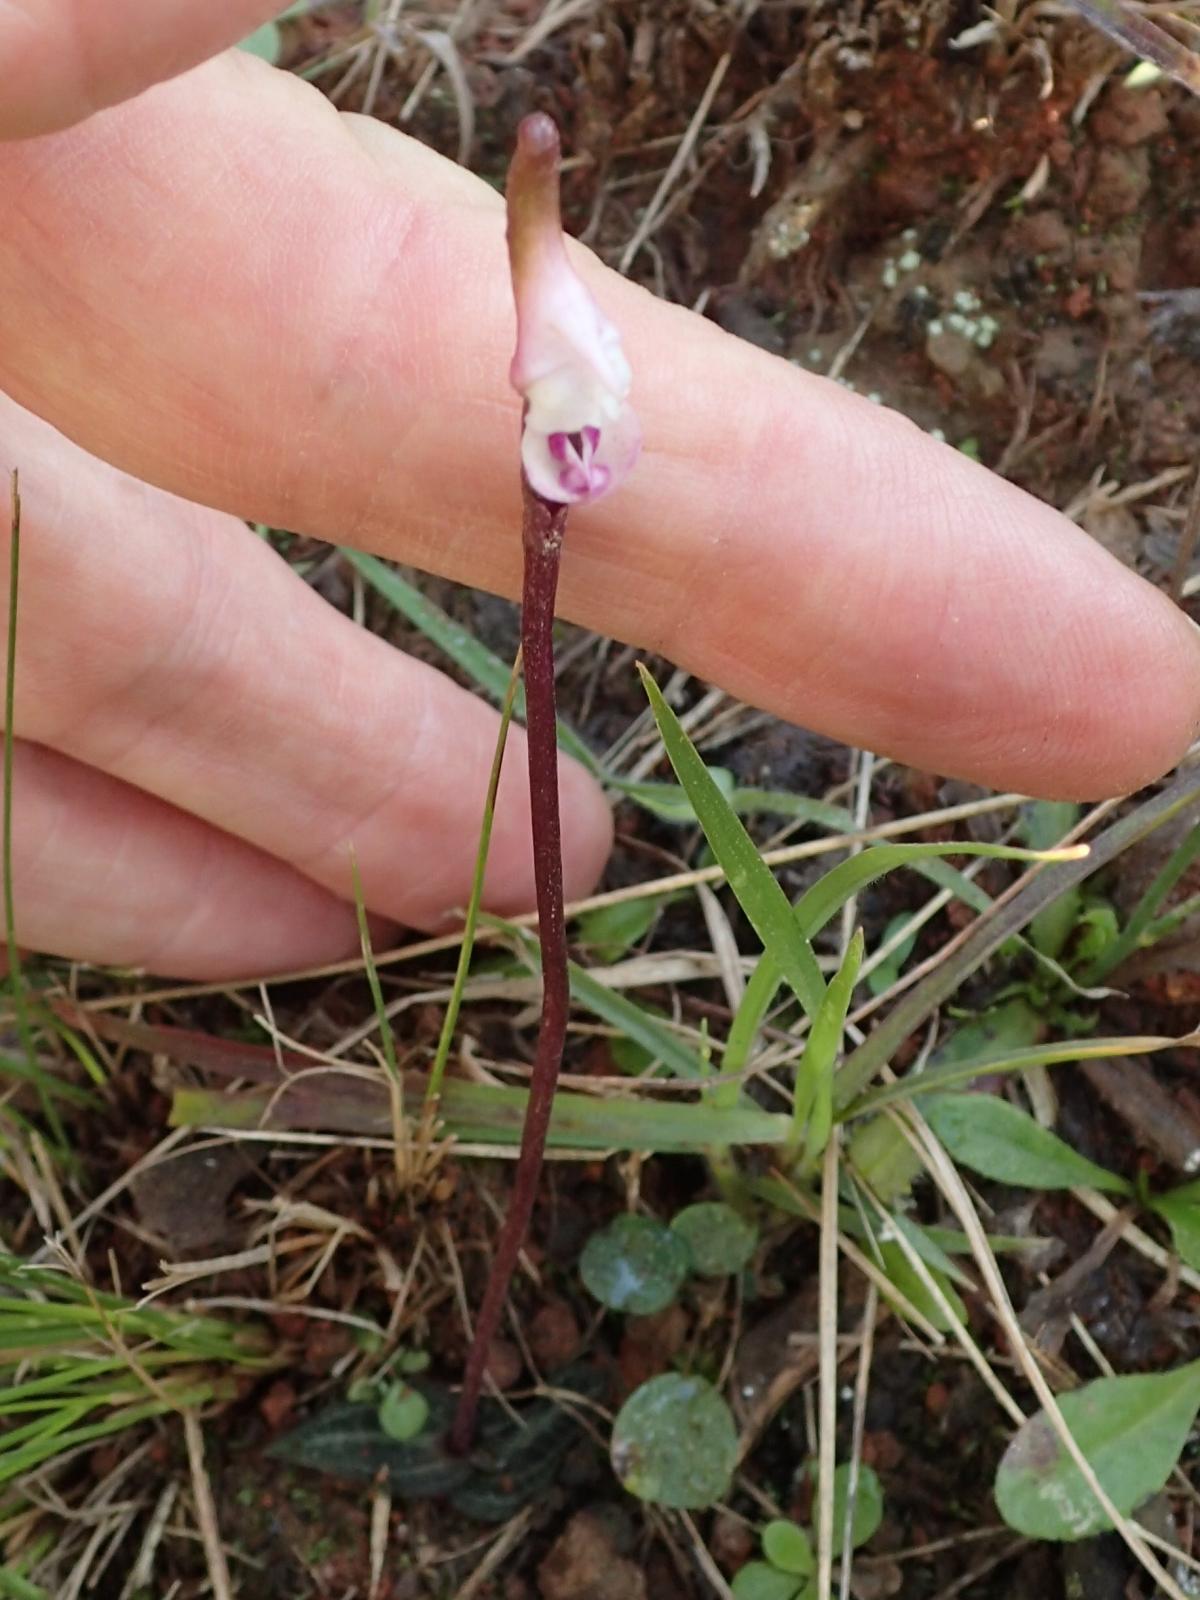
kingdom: Plantae
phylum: Tracheophyta
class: Liliopsida
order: Asparagales
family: Orchidaceae
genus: Disperis
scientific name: Disperis woodii
